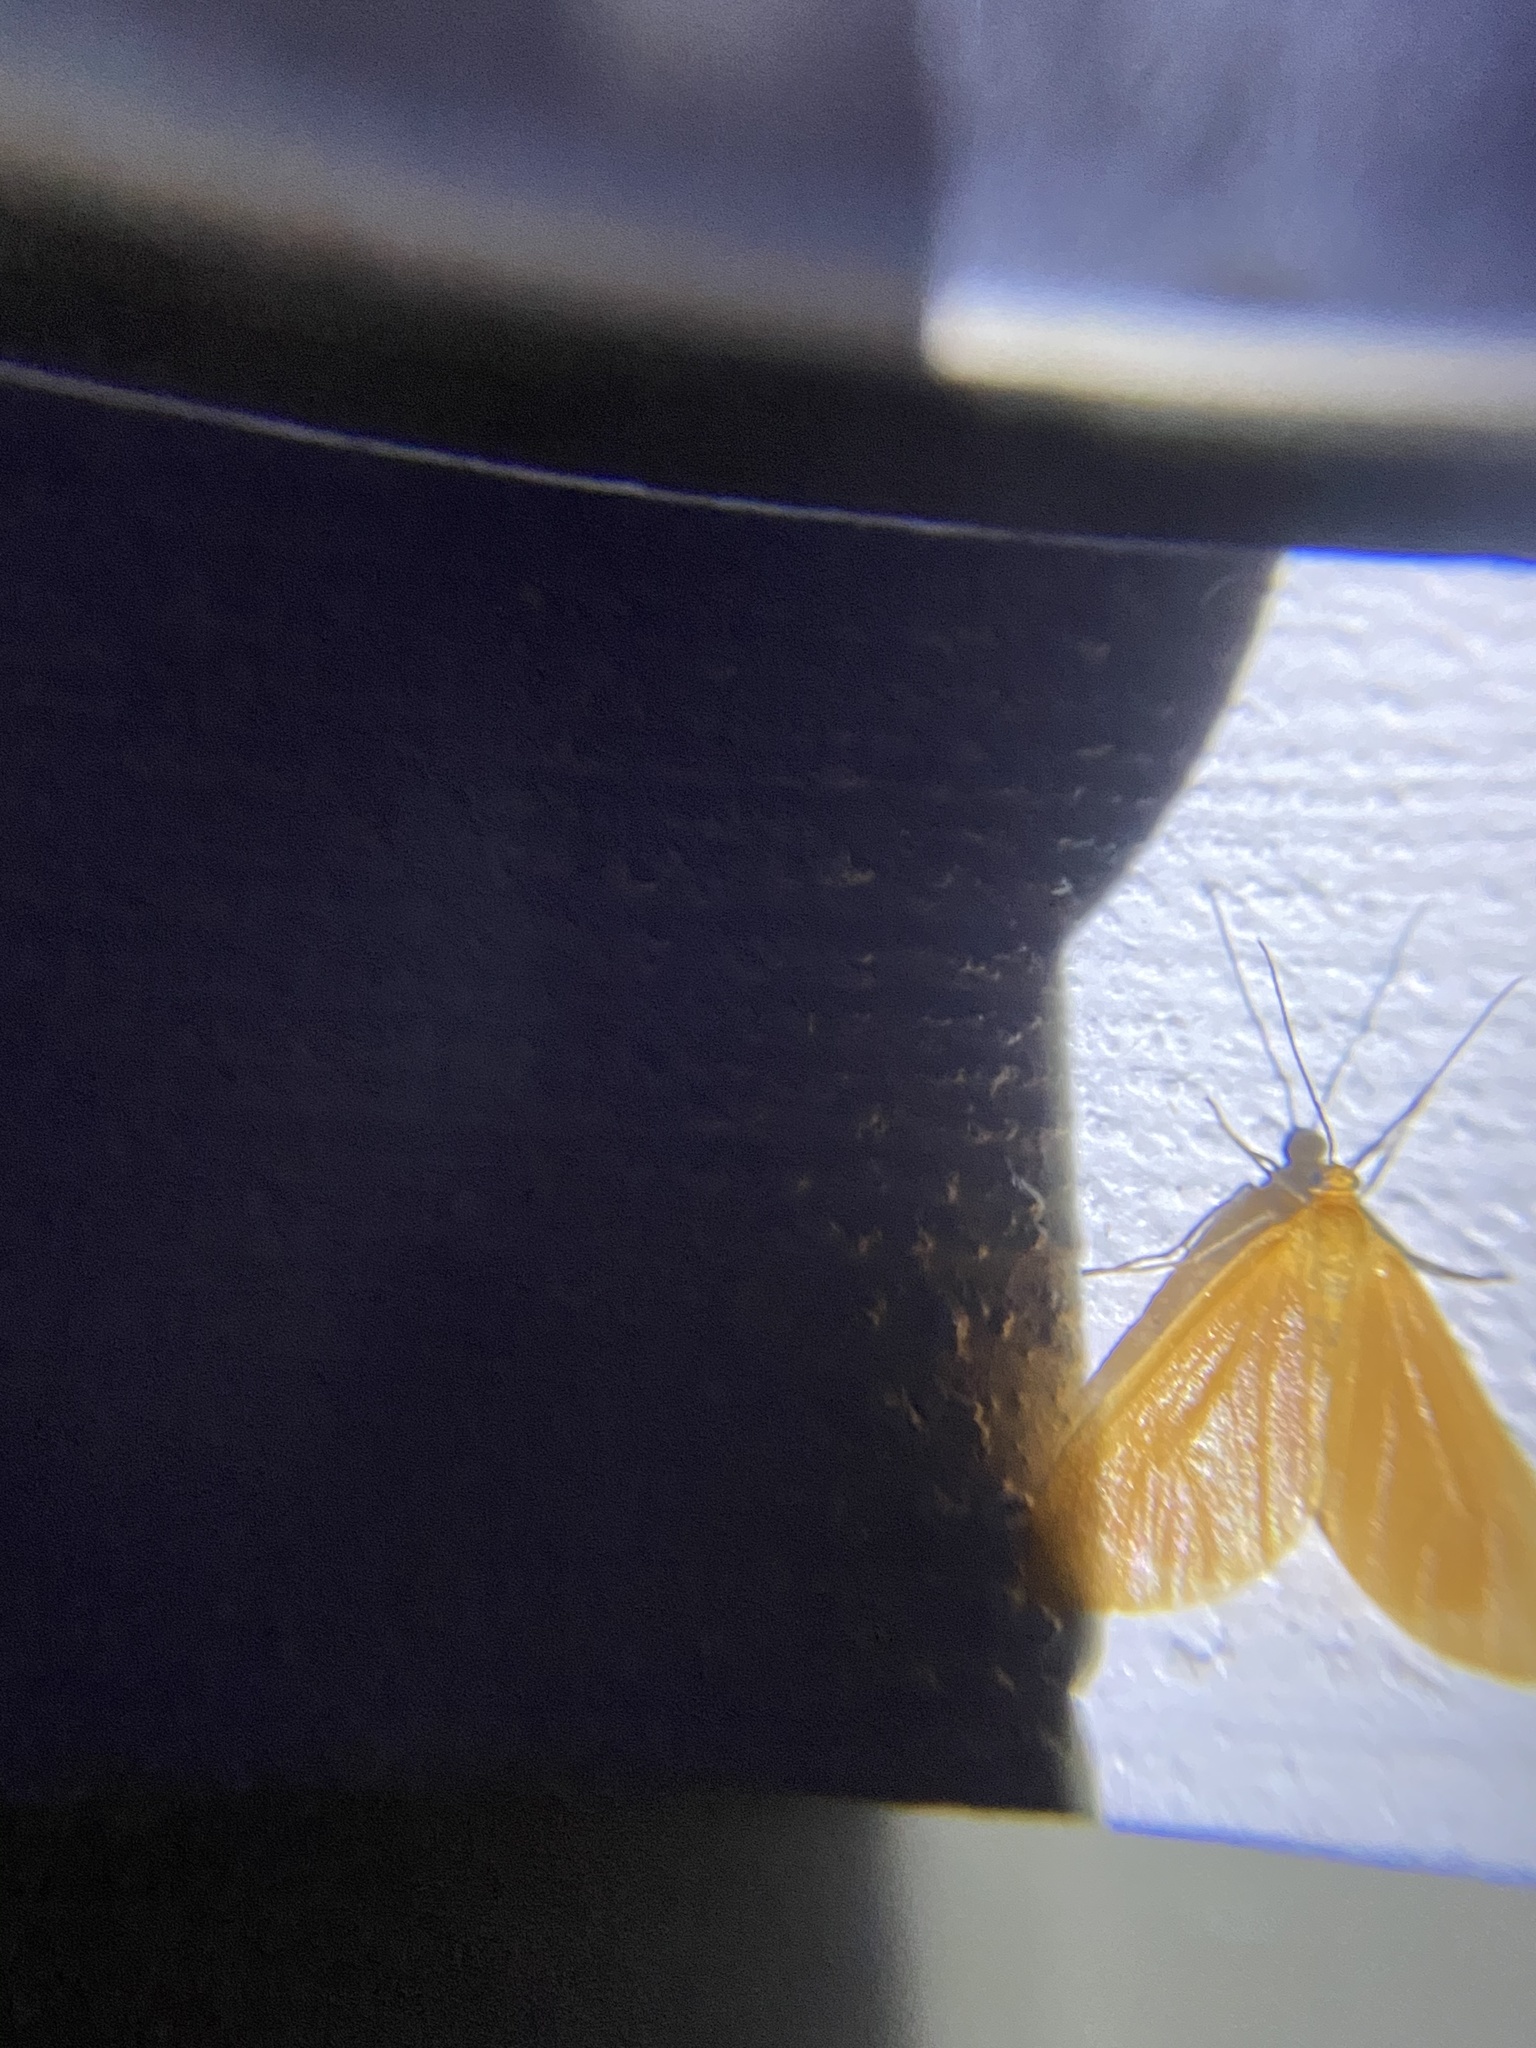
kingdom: Animalia
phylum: Arthropoda
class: Insecta
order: Lepidoptera
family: Geometridae
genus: Eubaphe
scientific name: Eubaphe unicolor
